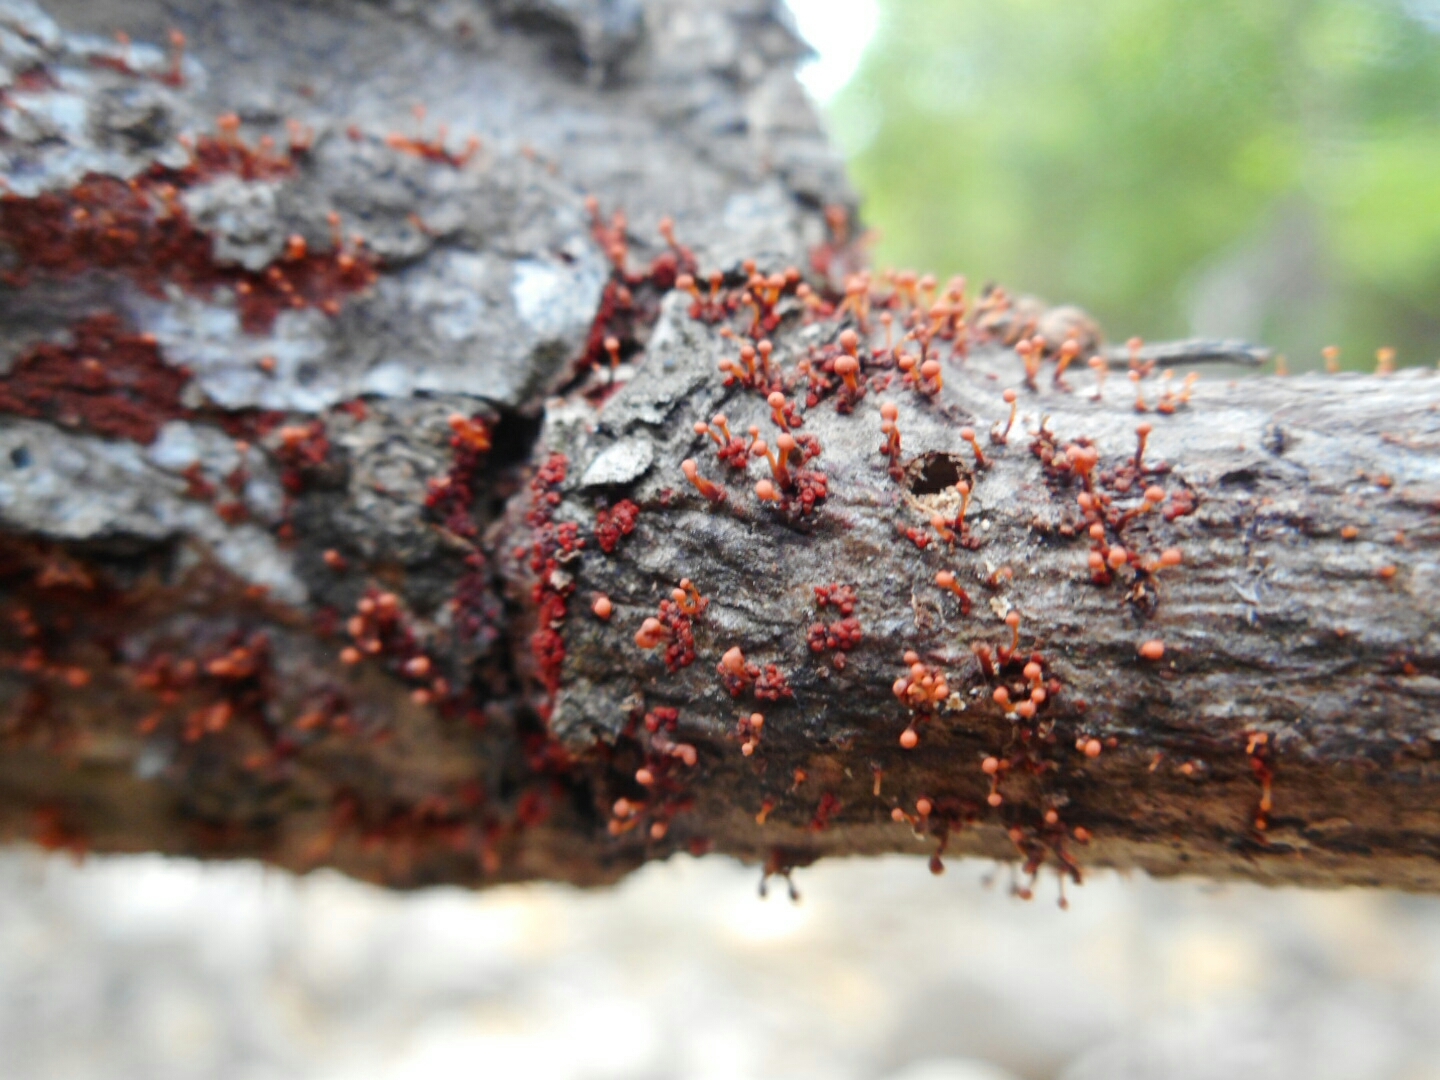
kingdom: Fungi
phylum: Ascomycota
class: Sordariomycetes
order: Hypocreales
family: Nectriaceae
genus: Nectria
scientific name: Nectria pseudotrichia
